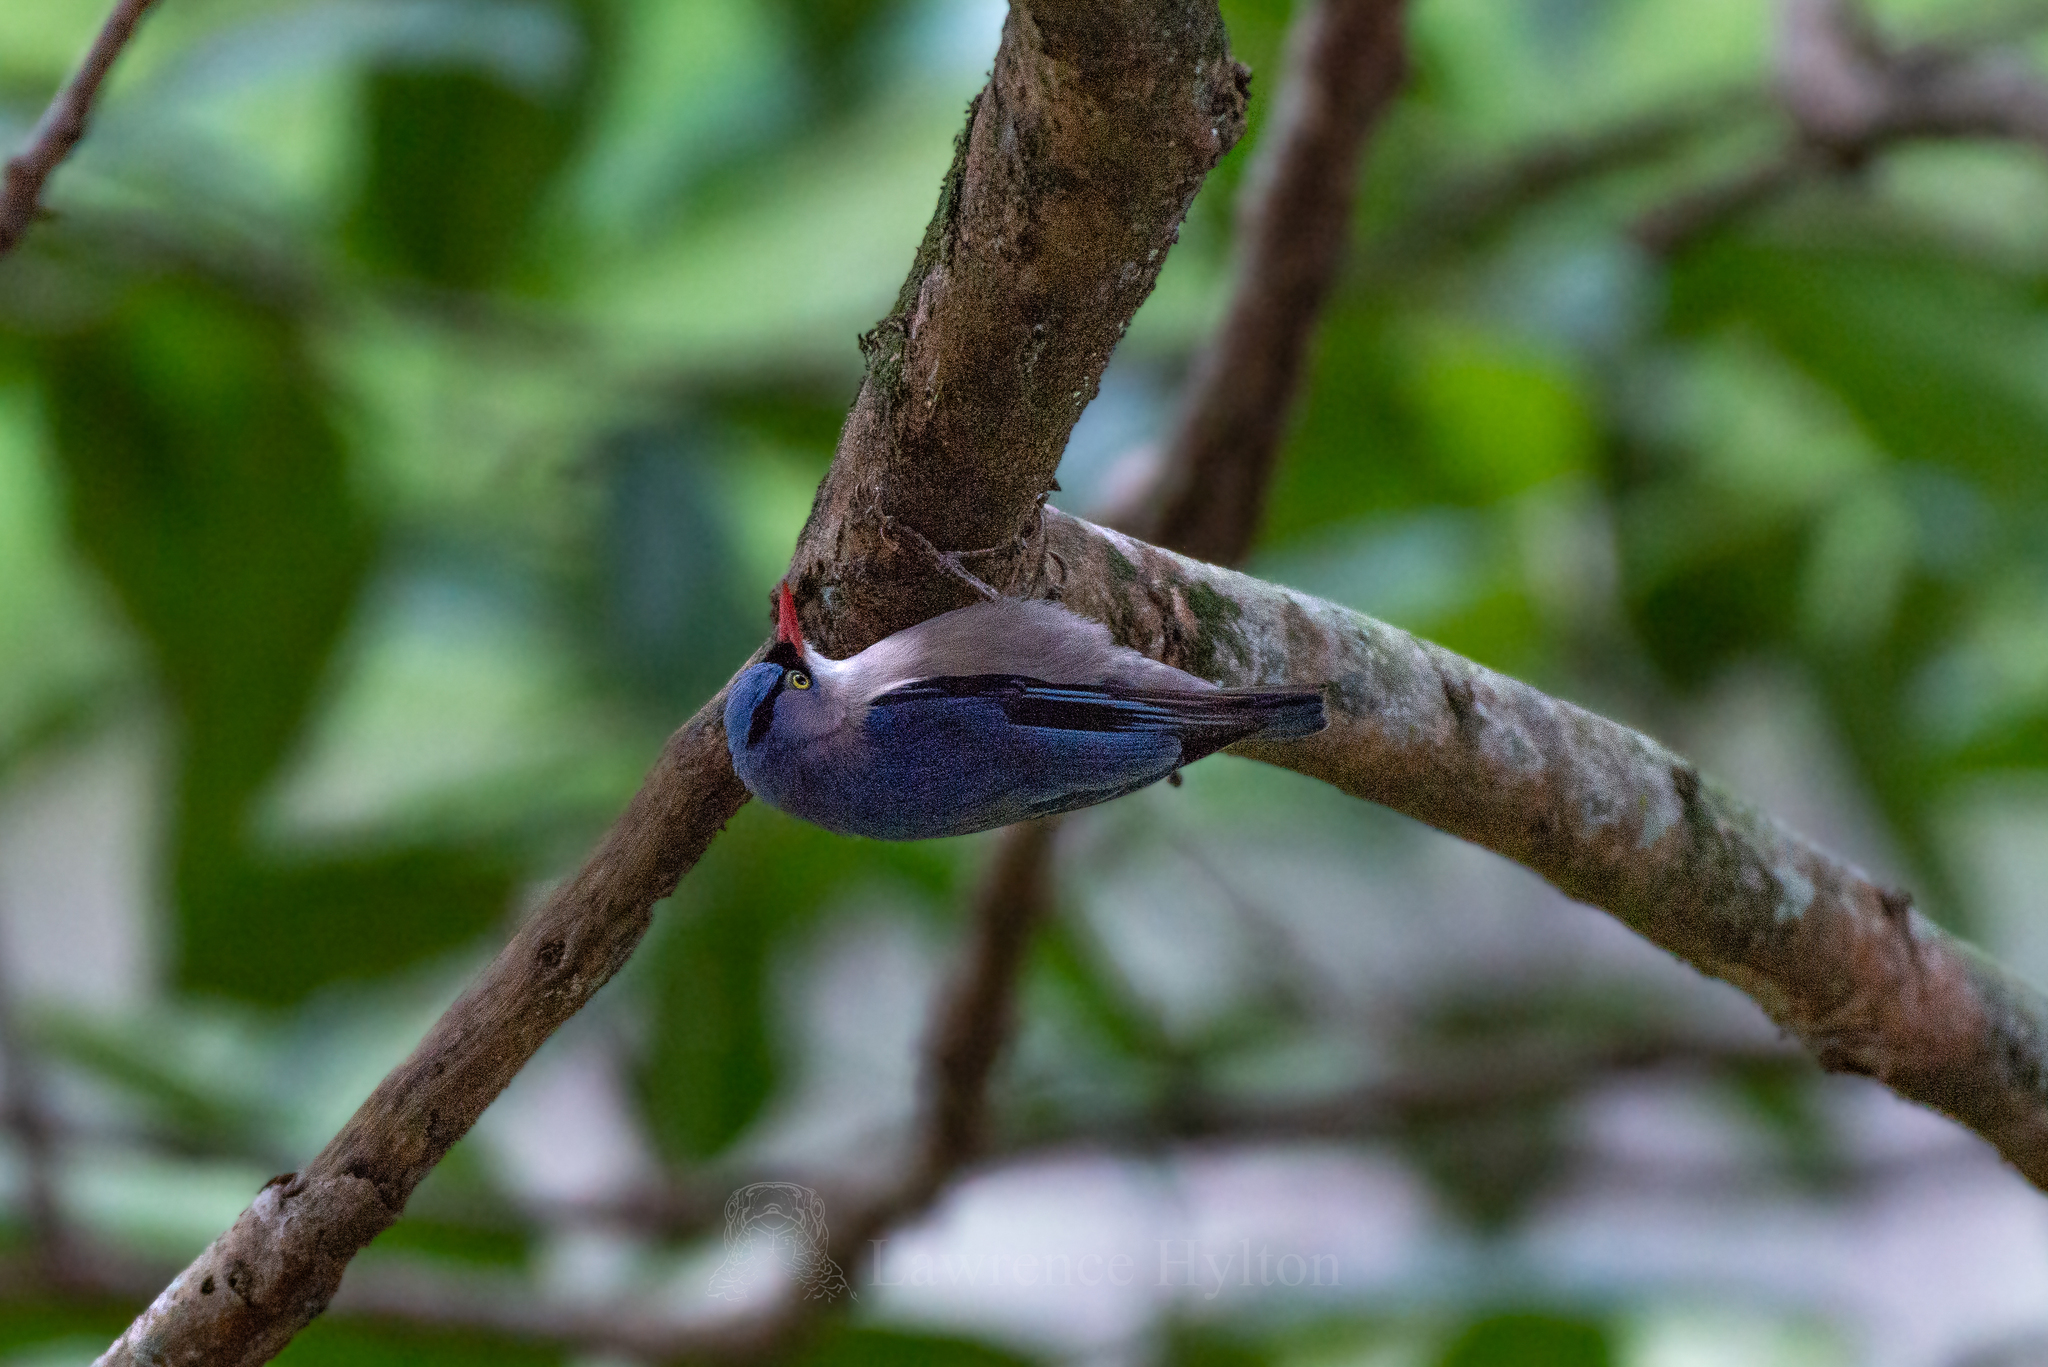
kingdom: Animalia
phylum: Chordata
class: Aves
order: Passeriformes
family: Sittidae
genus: Sitta
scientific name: Sitta frontalis
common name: Velvet-fronted nuthatch
